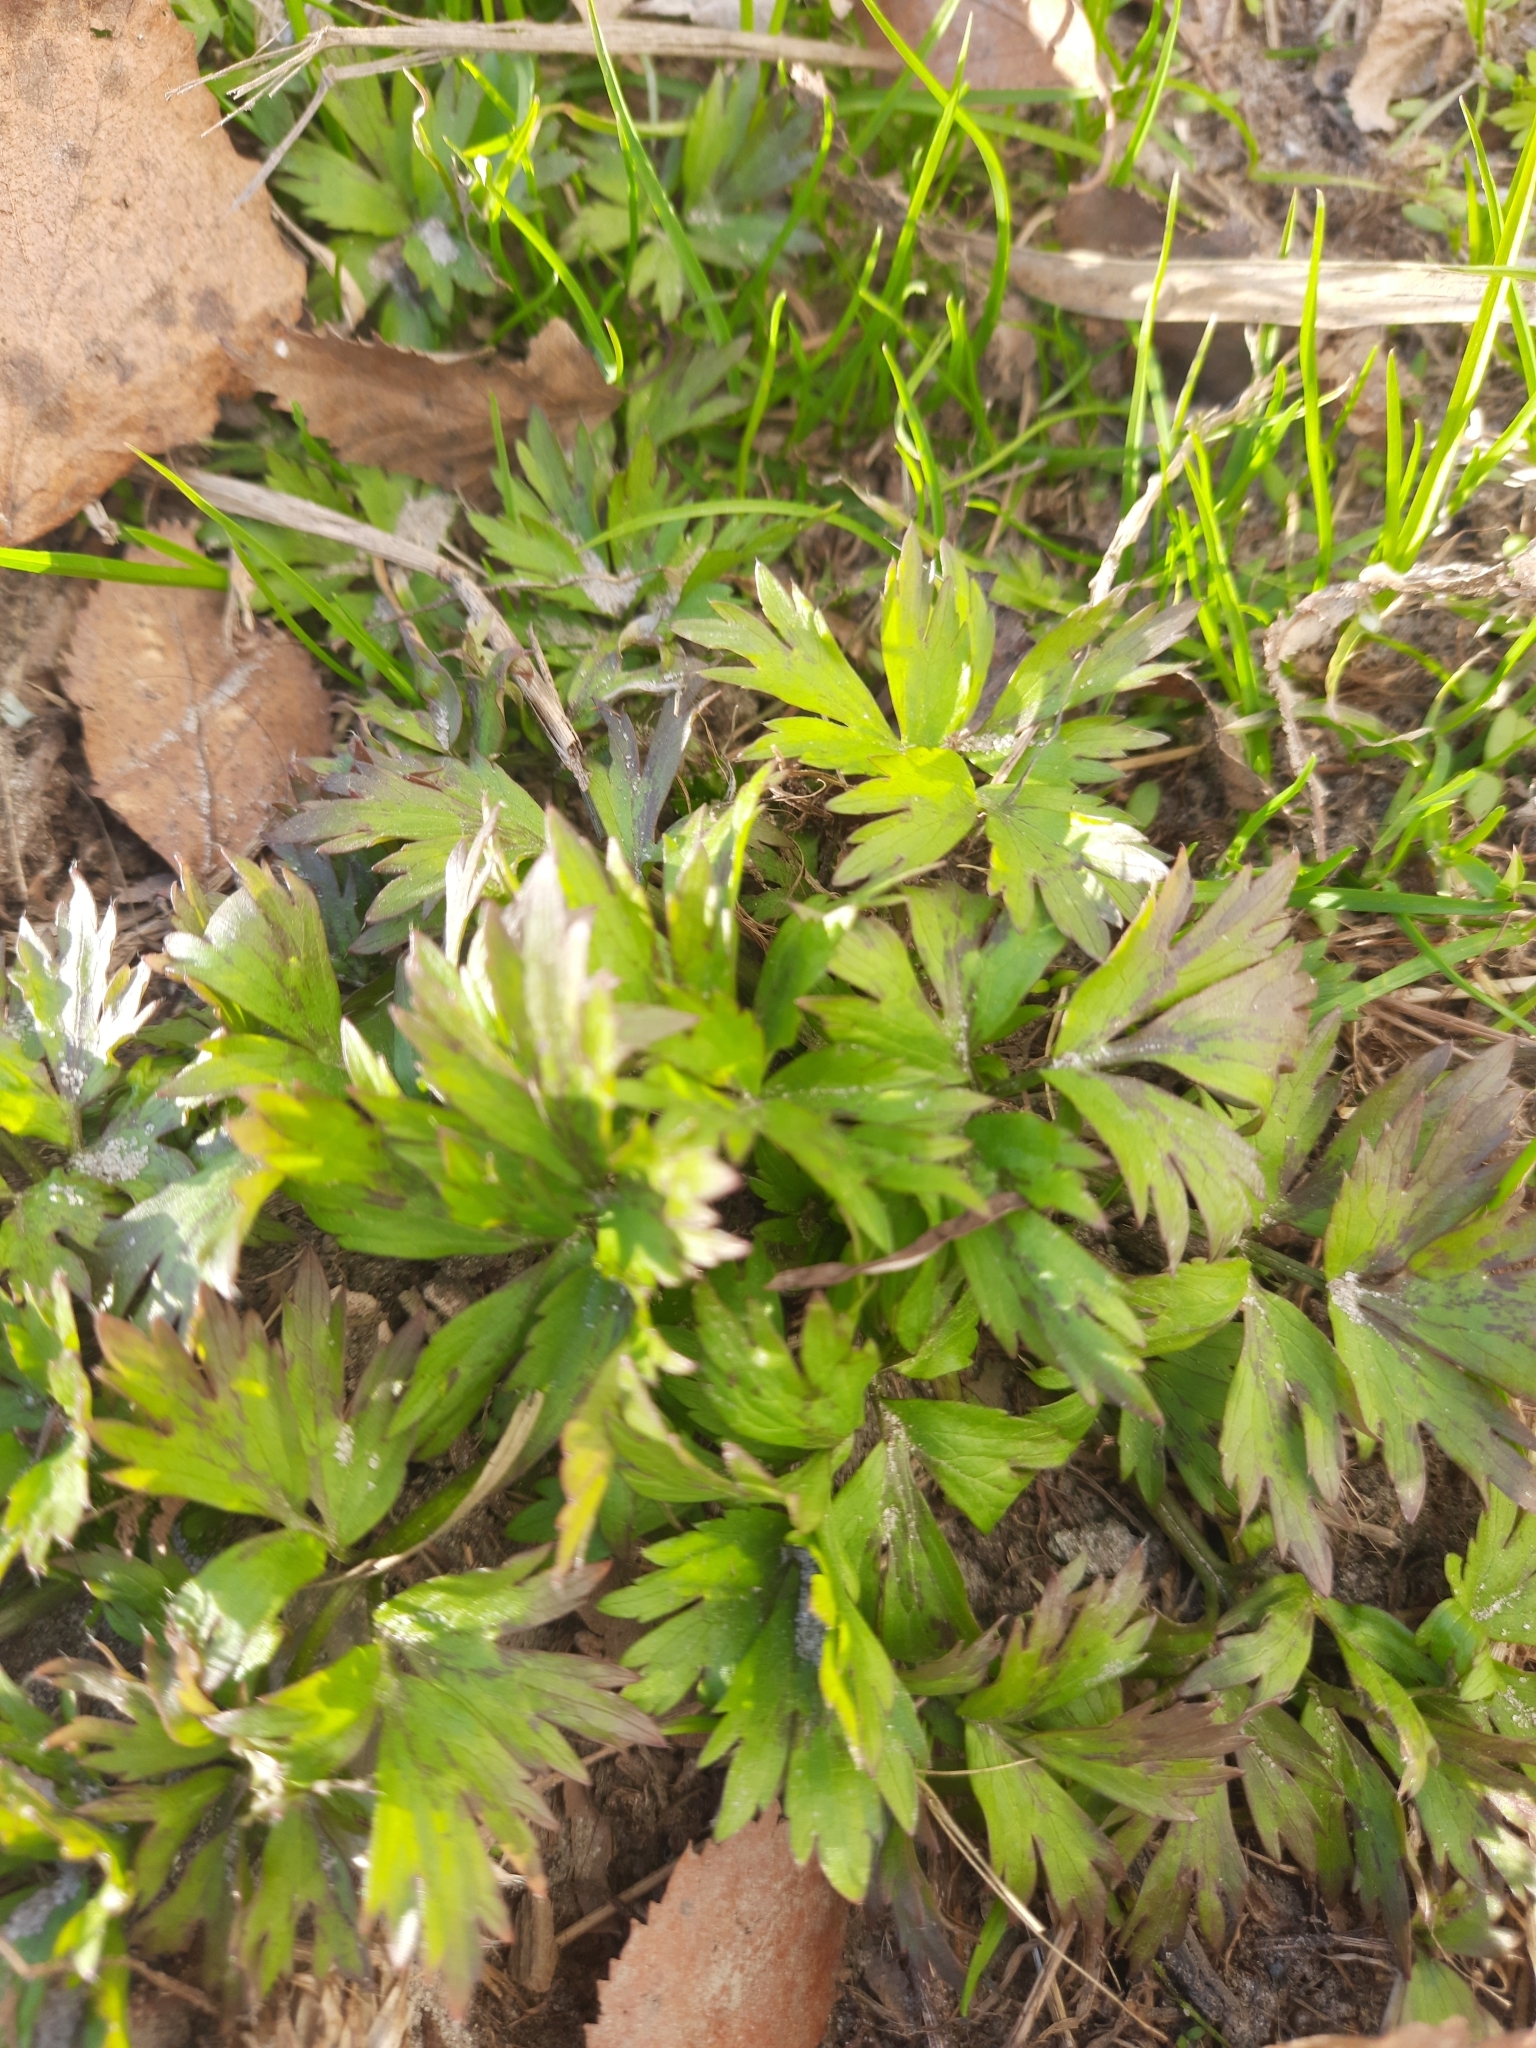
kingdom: Plantae
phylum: Tracheophyta
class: Magnoliopsida
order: Ranunculales
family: Ranunculaceae
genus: Ranunculus
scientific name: Ranunculus repens
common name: Creeping buttercup
